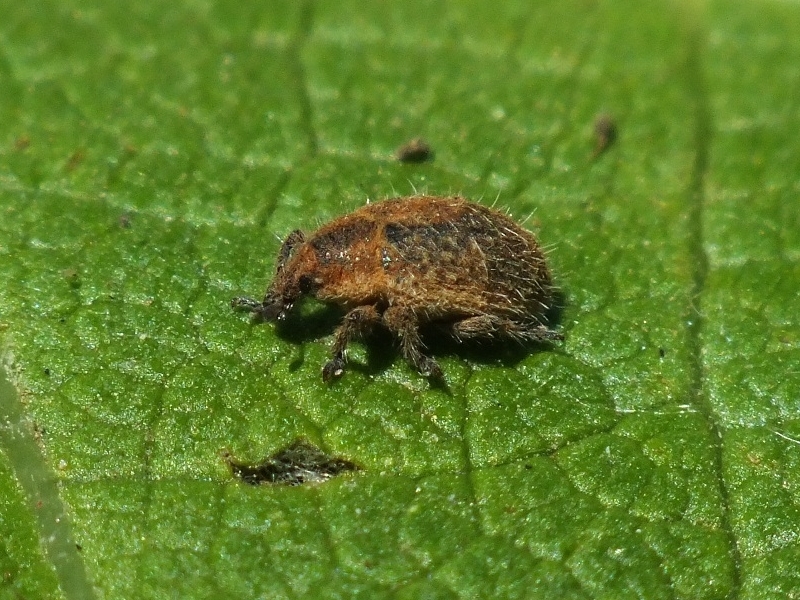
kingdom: Animalia
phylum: Arthropoda
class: Insecta
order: Coleoptera
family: Curculionidae
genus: Lachnaeus
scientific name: Lachnaeus crinitus
